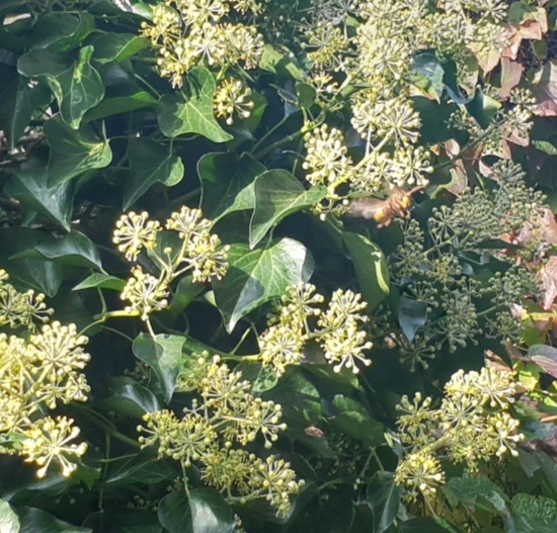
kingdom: Animalia
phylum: Arthropoda
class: Insecta
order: Hymenoptera
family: Vespidae
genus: Vespa
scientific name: Vespa crabro
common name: Hornet
